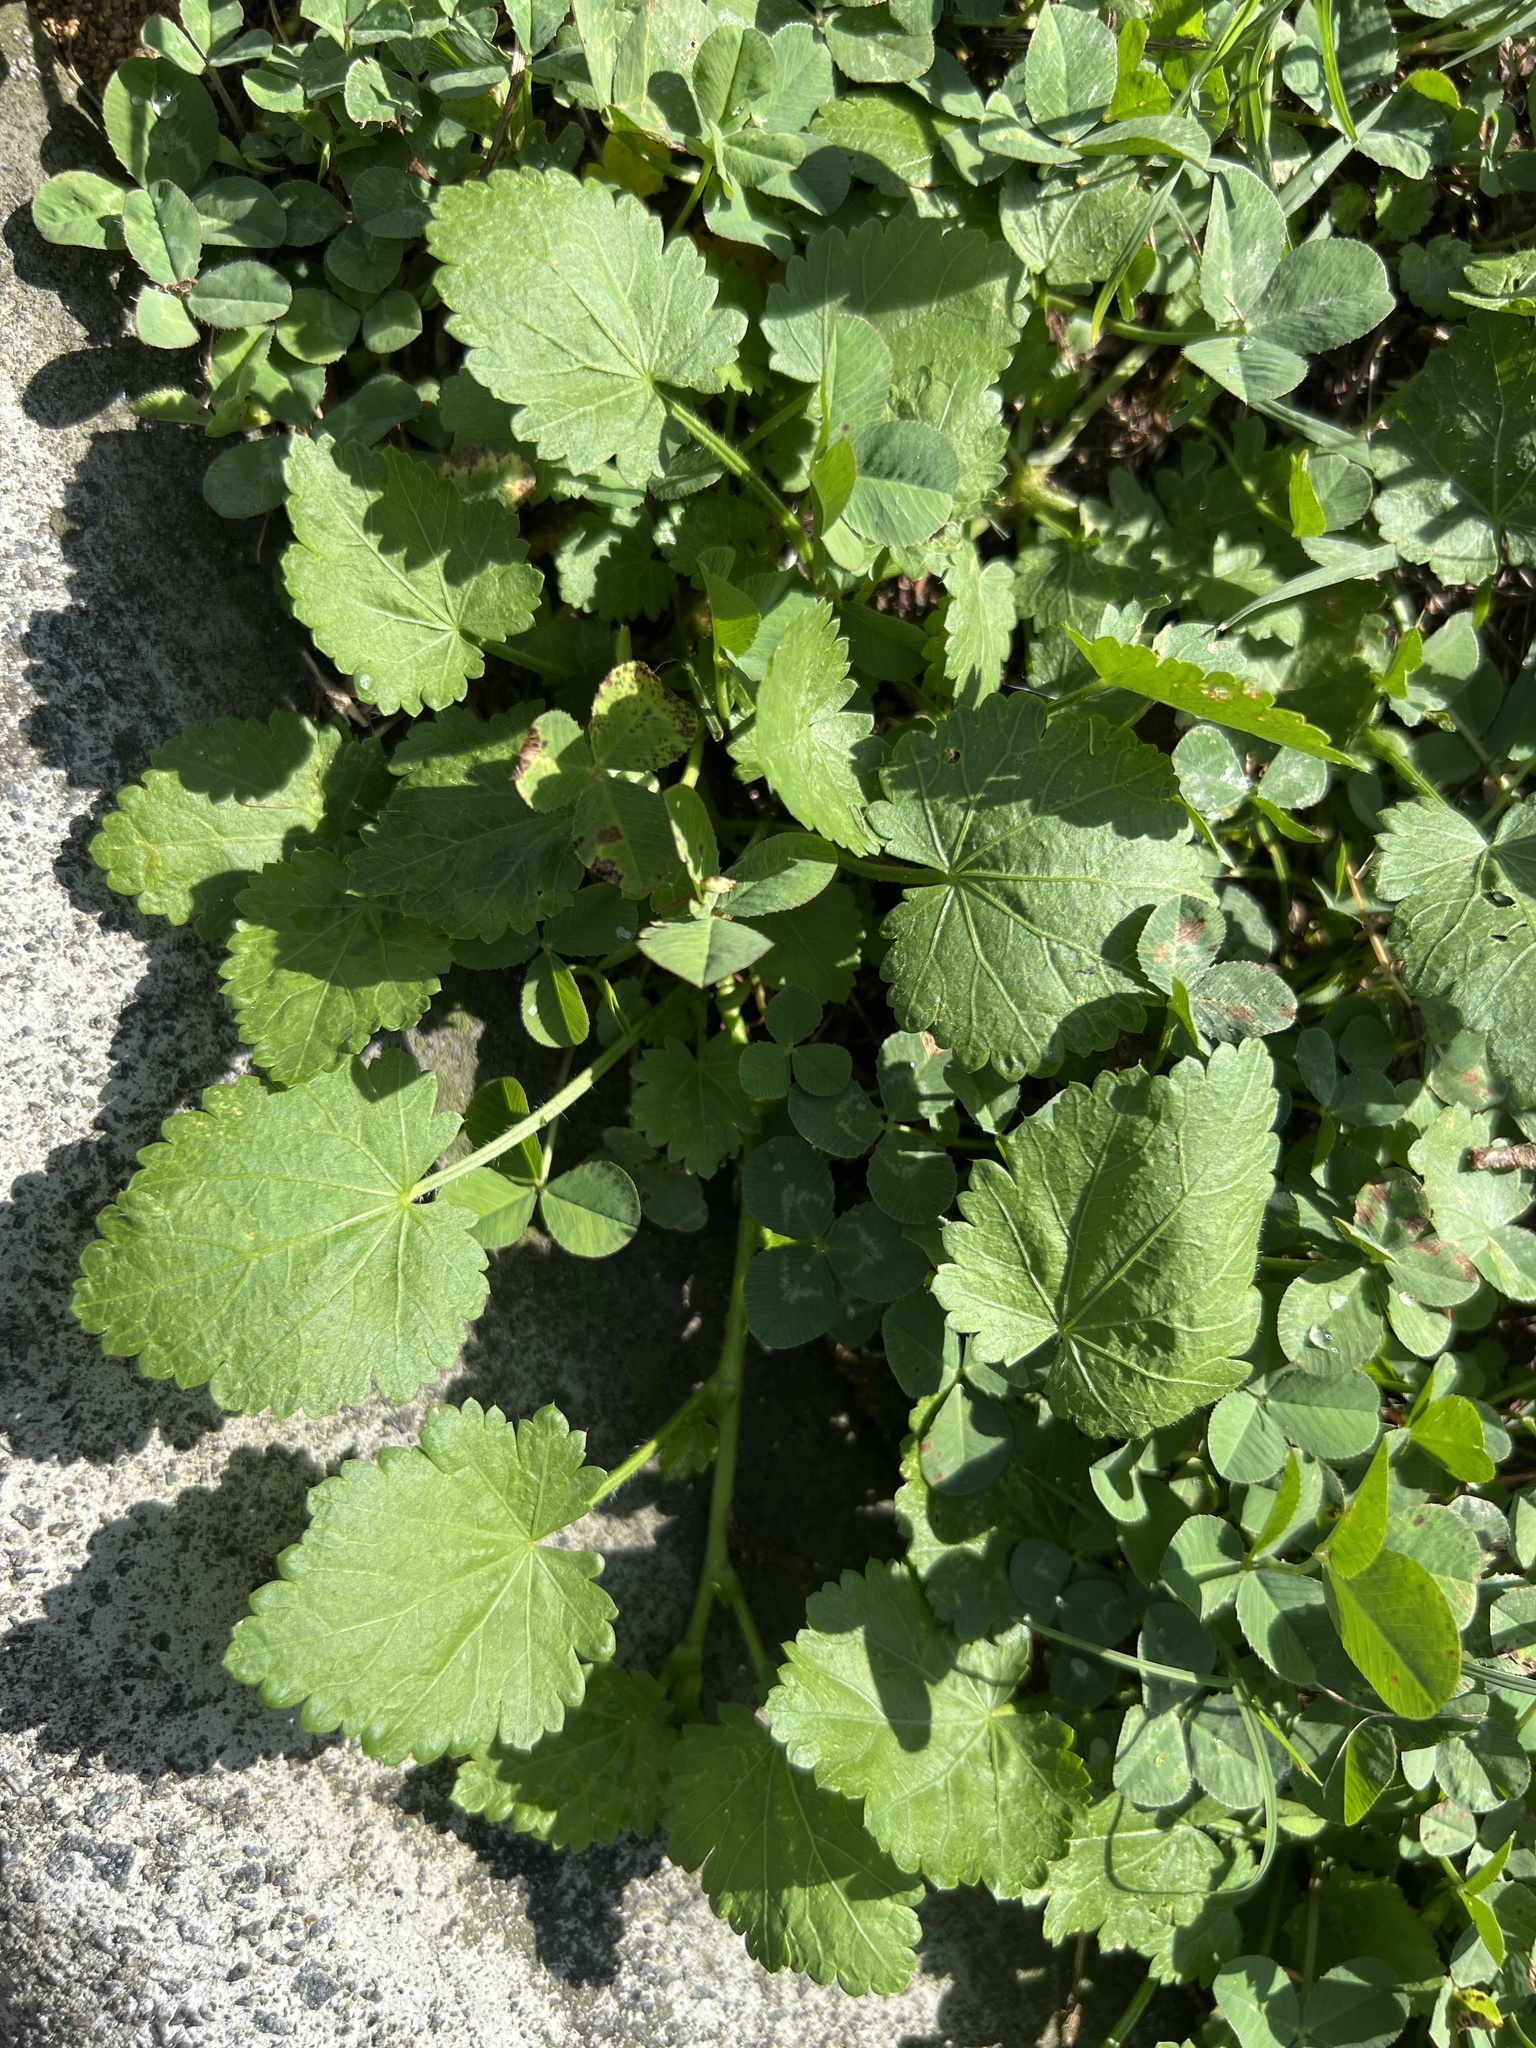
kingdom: Plantae
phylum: Tracheophyta
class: Magnoliopsida
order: Malvales
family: Malvaceae
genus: Modiola
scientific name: Modiola caroliniana
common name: Carolina bristlemallow
